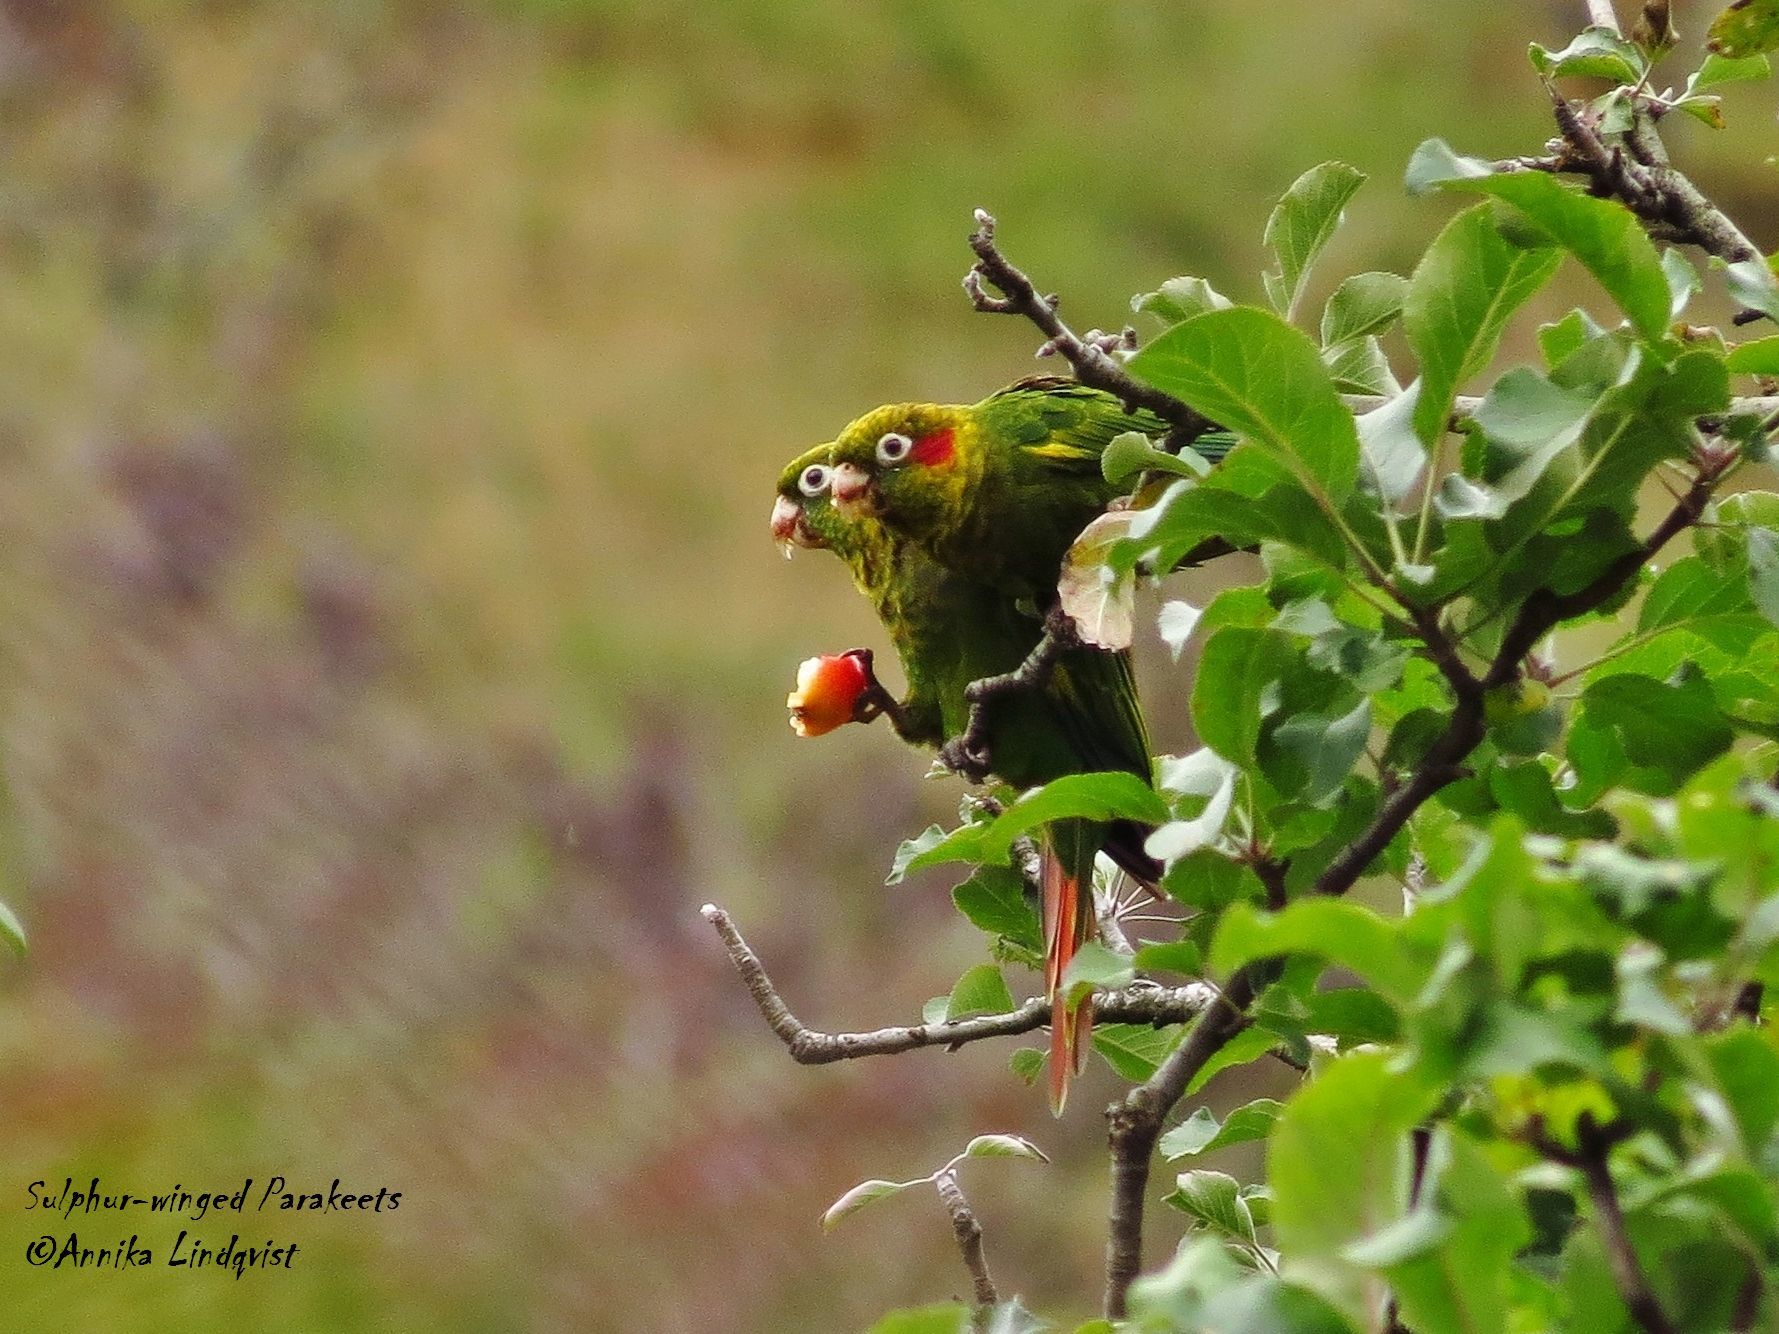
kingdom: Animalia
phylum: Chordata
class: Aves
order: Psittaciformes
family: Psittacidae
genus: Pyrrhura
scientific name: Pyrrhura hoffmanni
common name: Sulphur-winged parakeet
